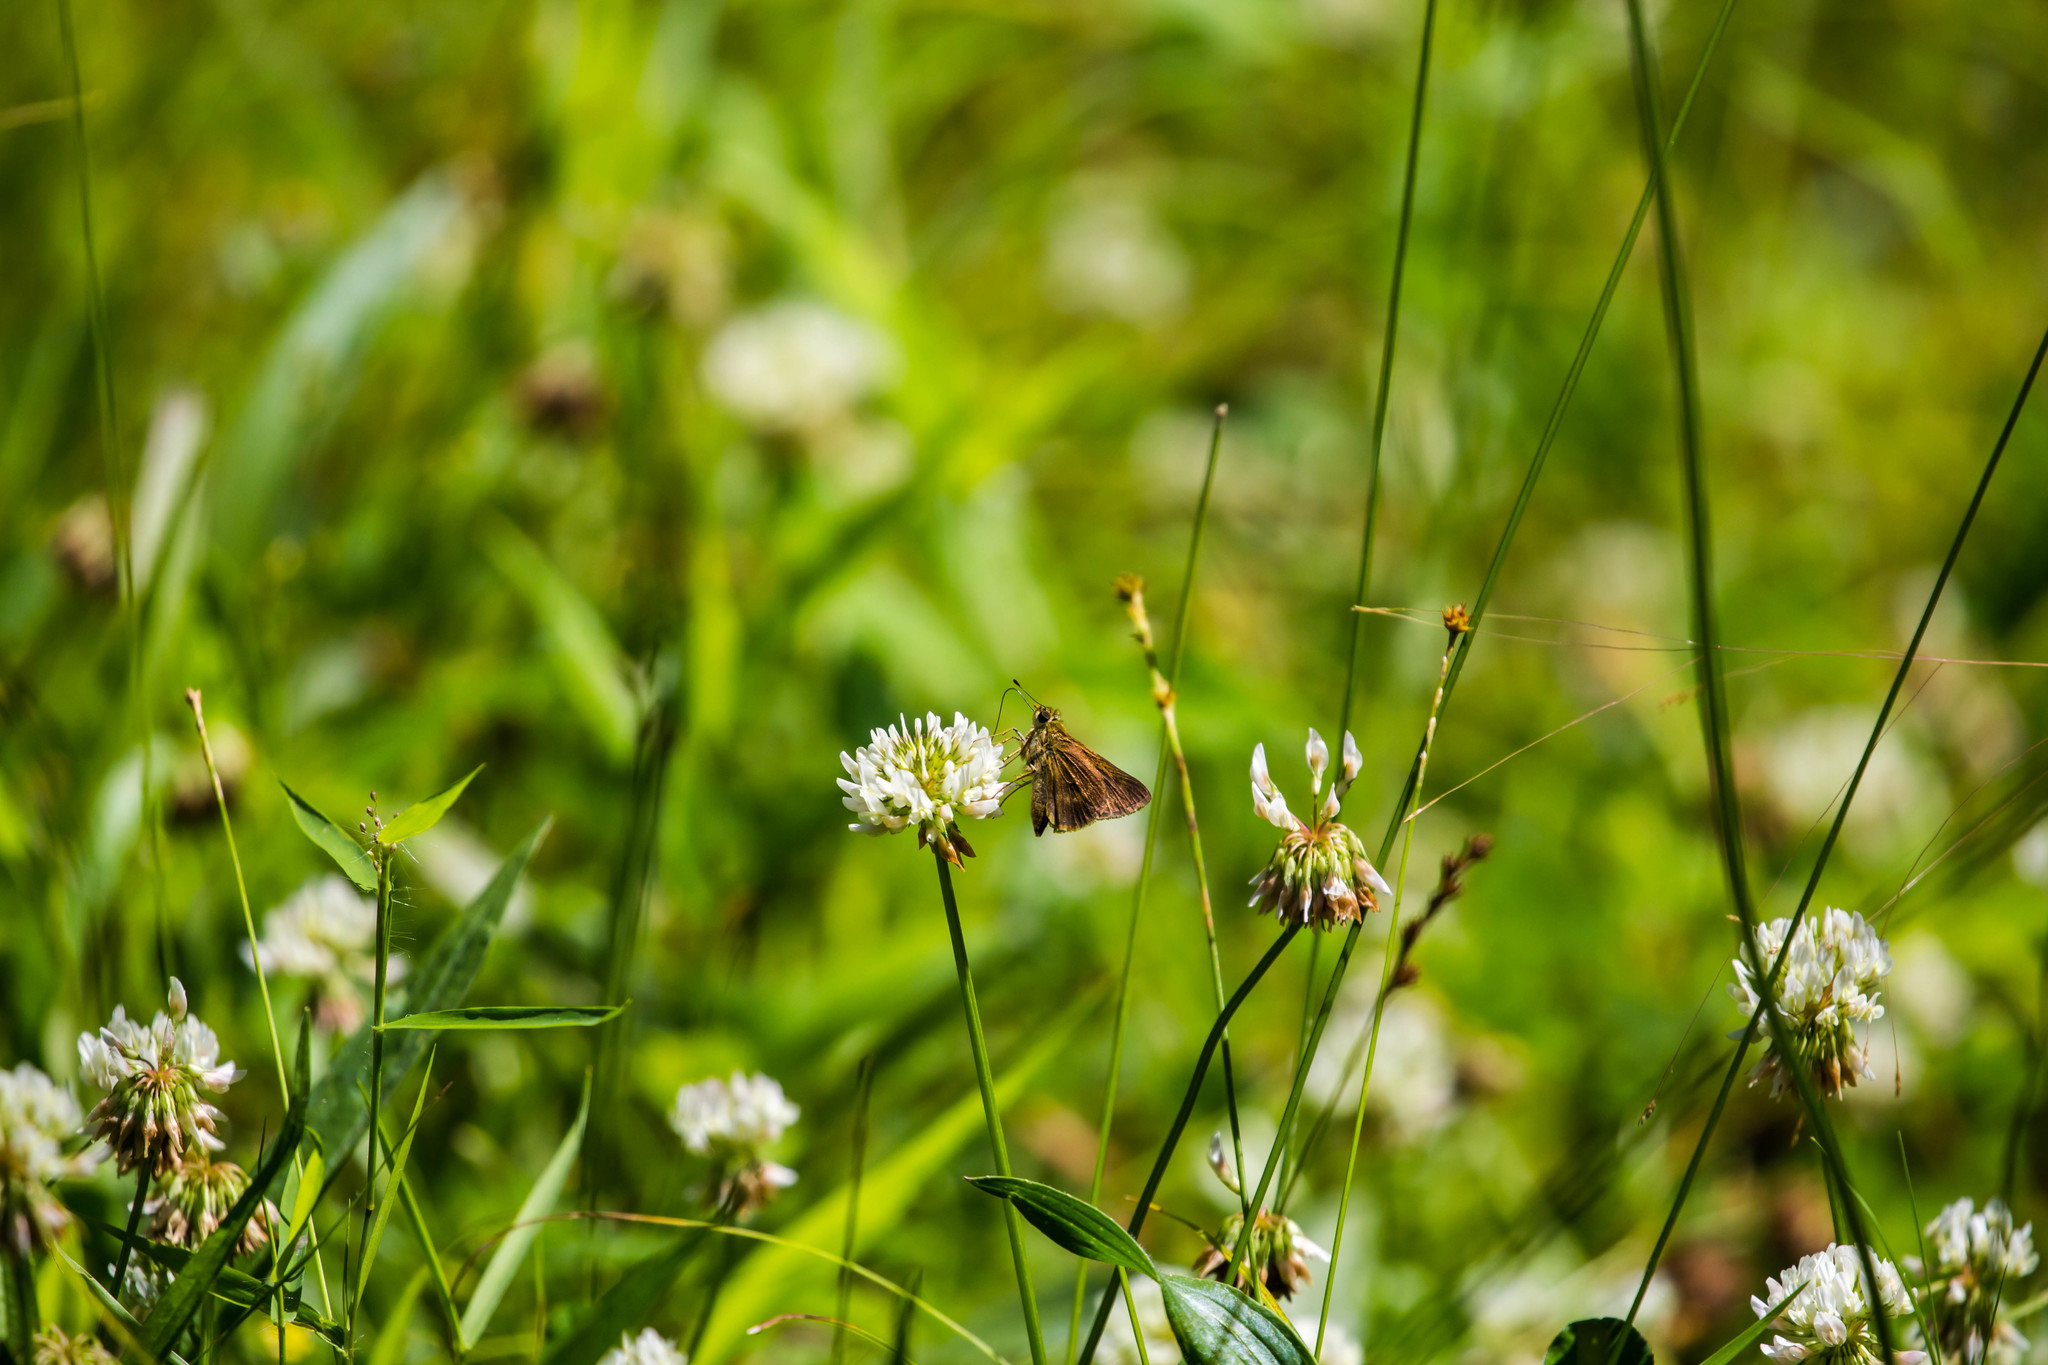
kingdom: Animalia
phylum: Arthropoda
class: Insecta
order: Lepidoptera
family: Hesperiidae
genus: Polites
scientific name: Polites egeremet
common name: Northern broken-dash
